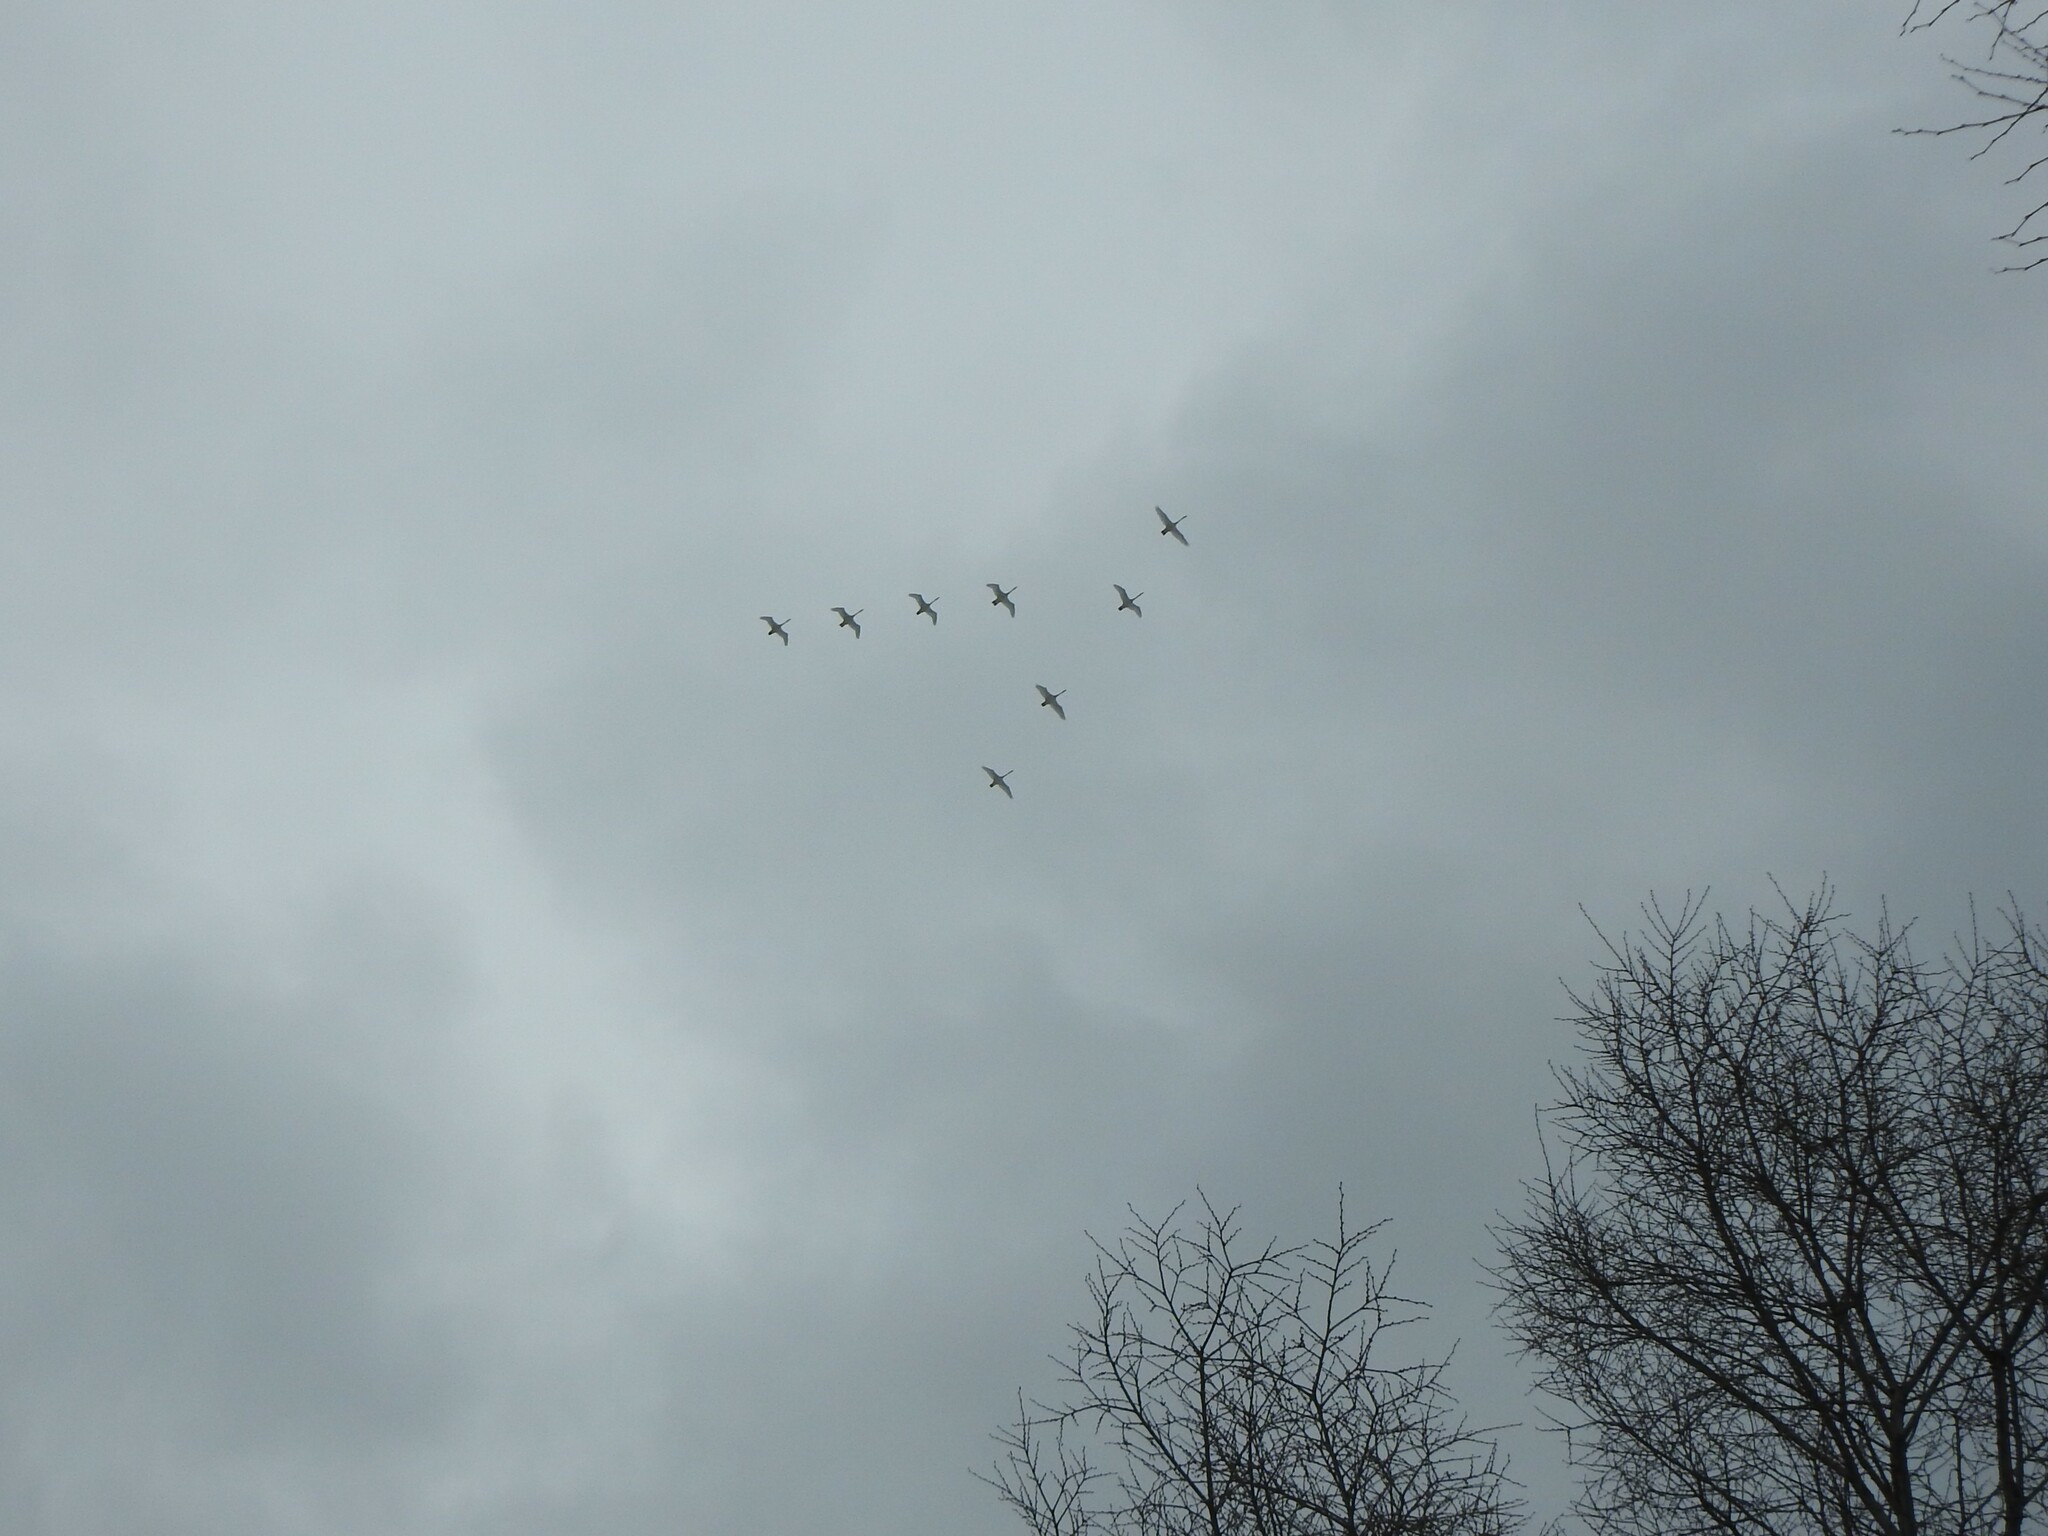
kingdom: Animalia
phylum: Chordata
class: Aves
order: Anseriformes
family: Anatidae
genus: Cygnus
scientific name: Cygnus buccinator
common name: Trumpeter swan
